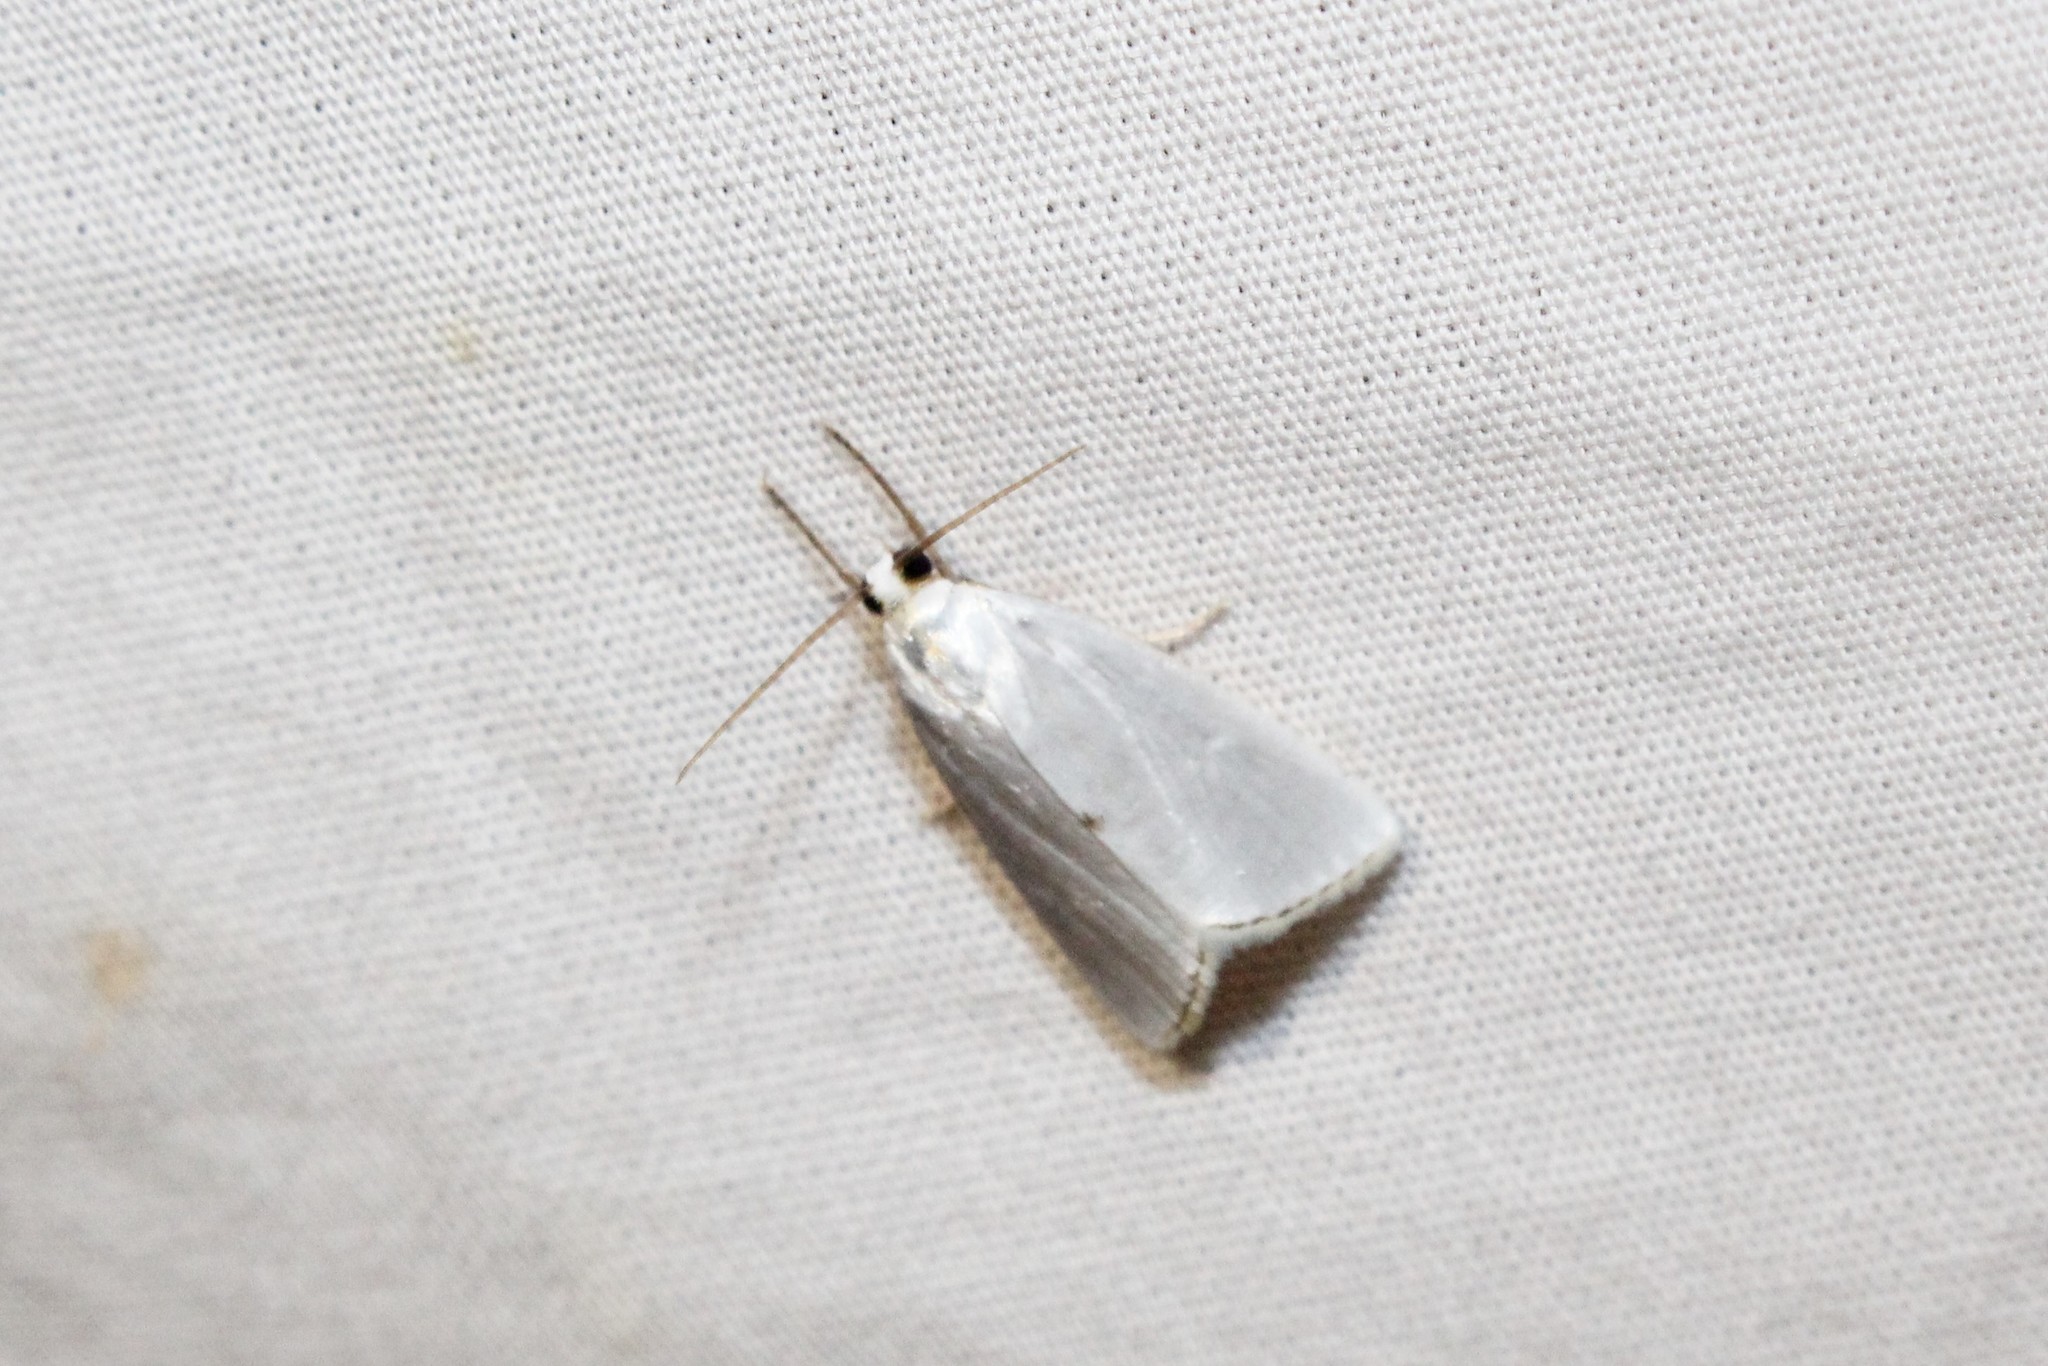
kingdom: Animalia
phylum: Arthropoda
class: Insecta
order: Lepidoptera
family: Crambidae
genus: Argyria
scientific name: Argyria nivalis
